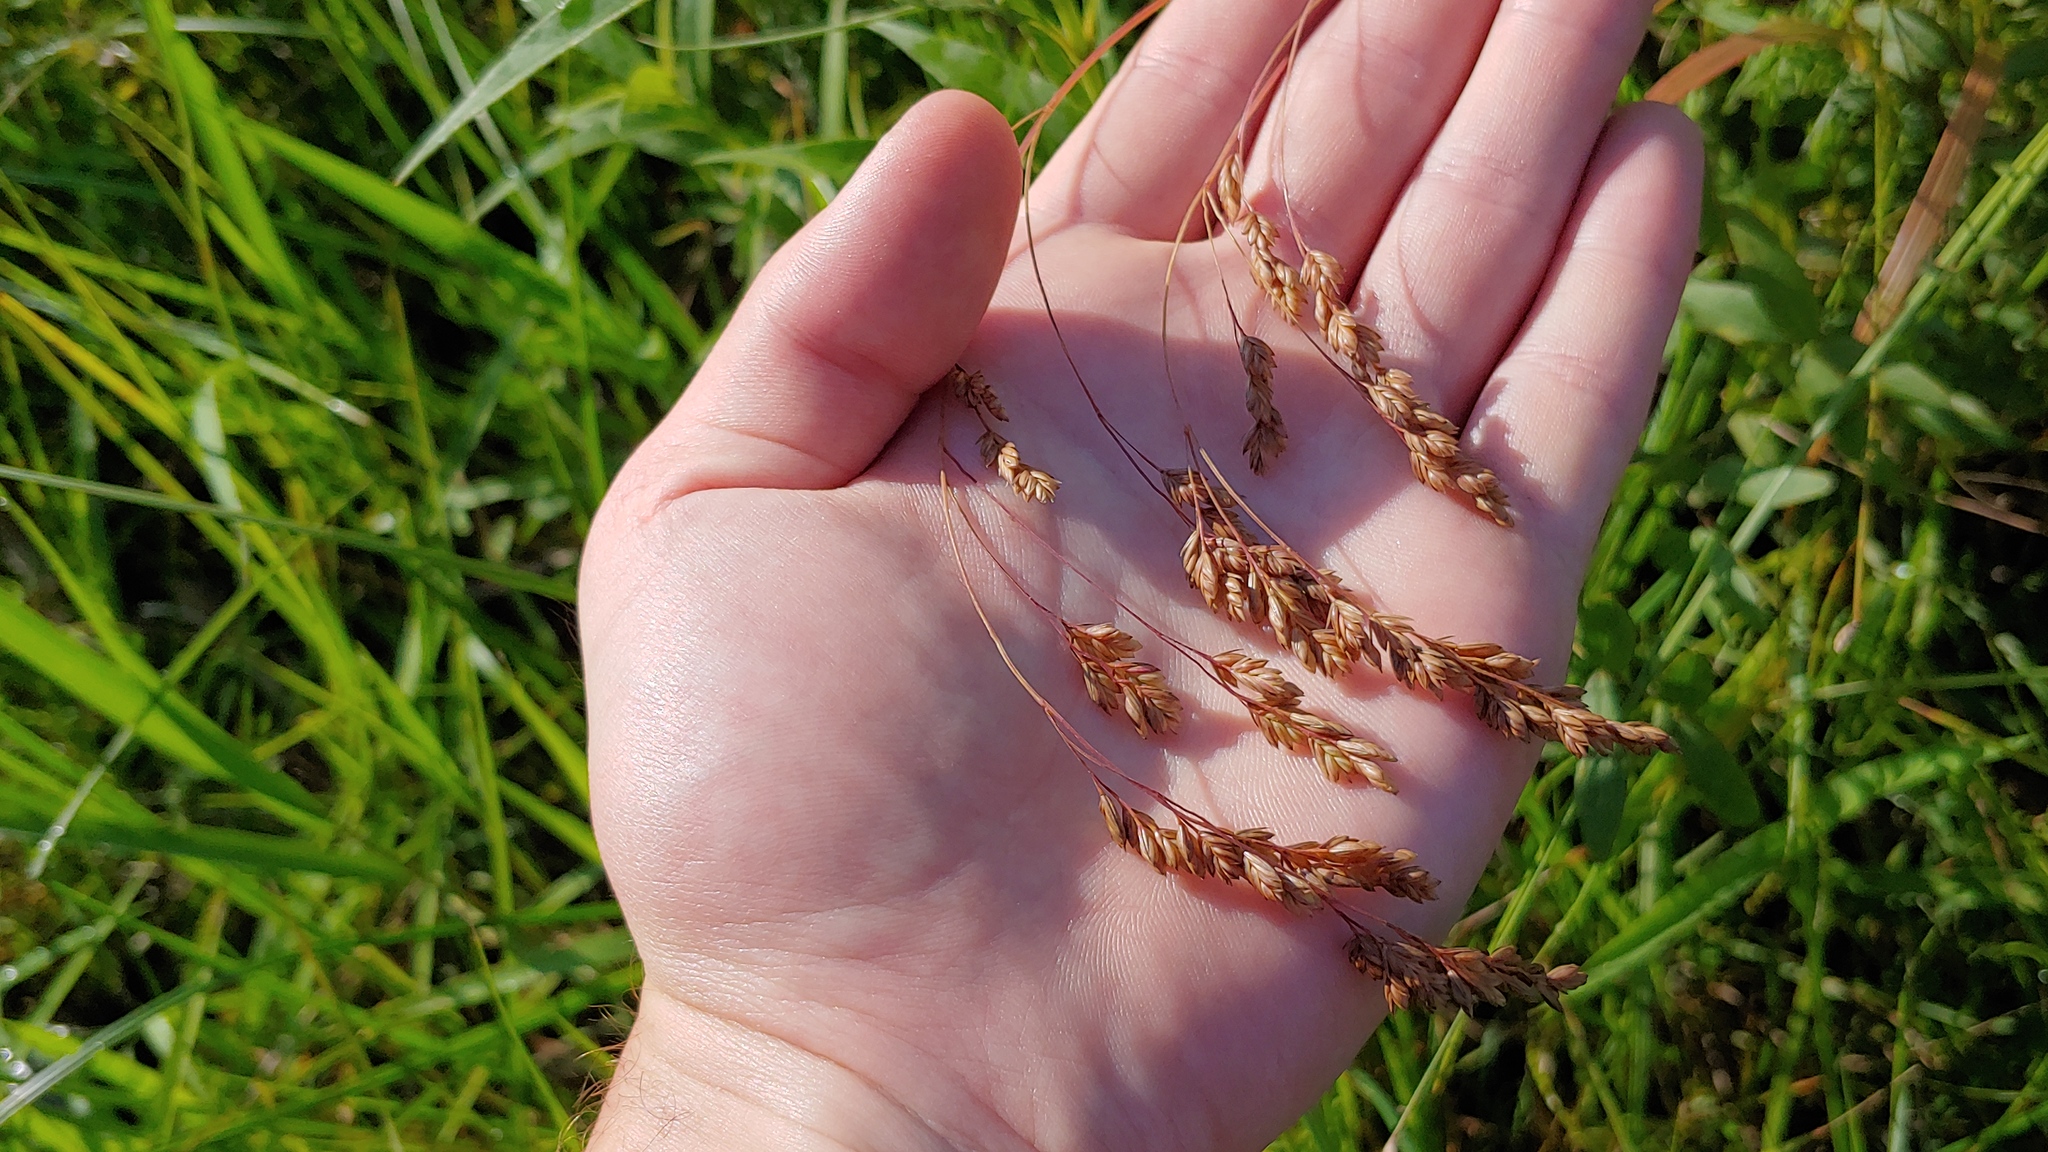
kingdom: Plantae
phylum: Tracheophyta
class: Liliopsida
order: Poales
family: Poaceae
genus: Festuca
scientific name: Festuca paradoxa
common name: Cluster fescue
